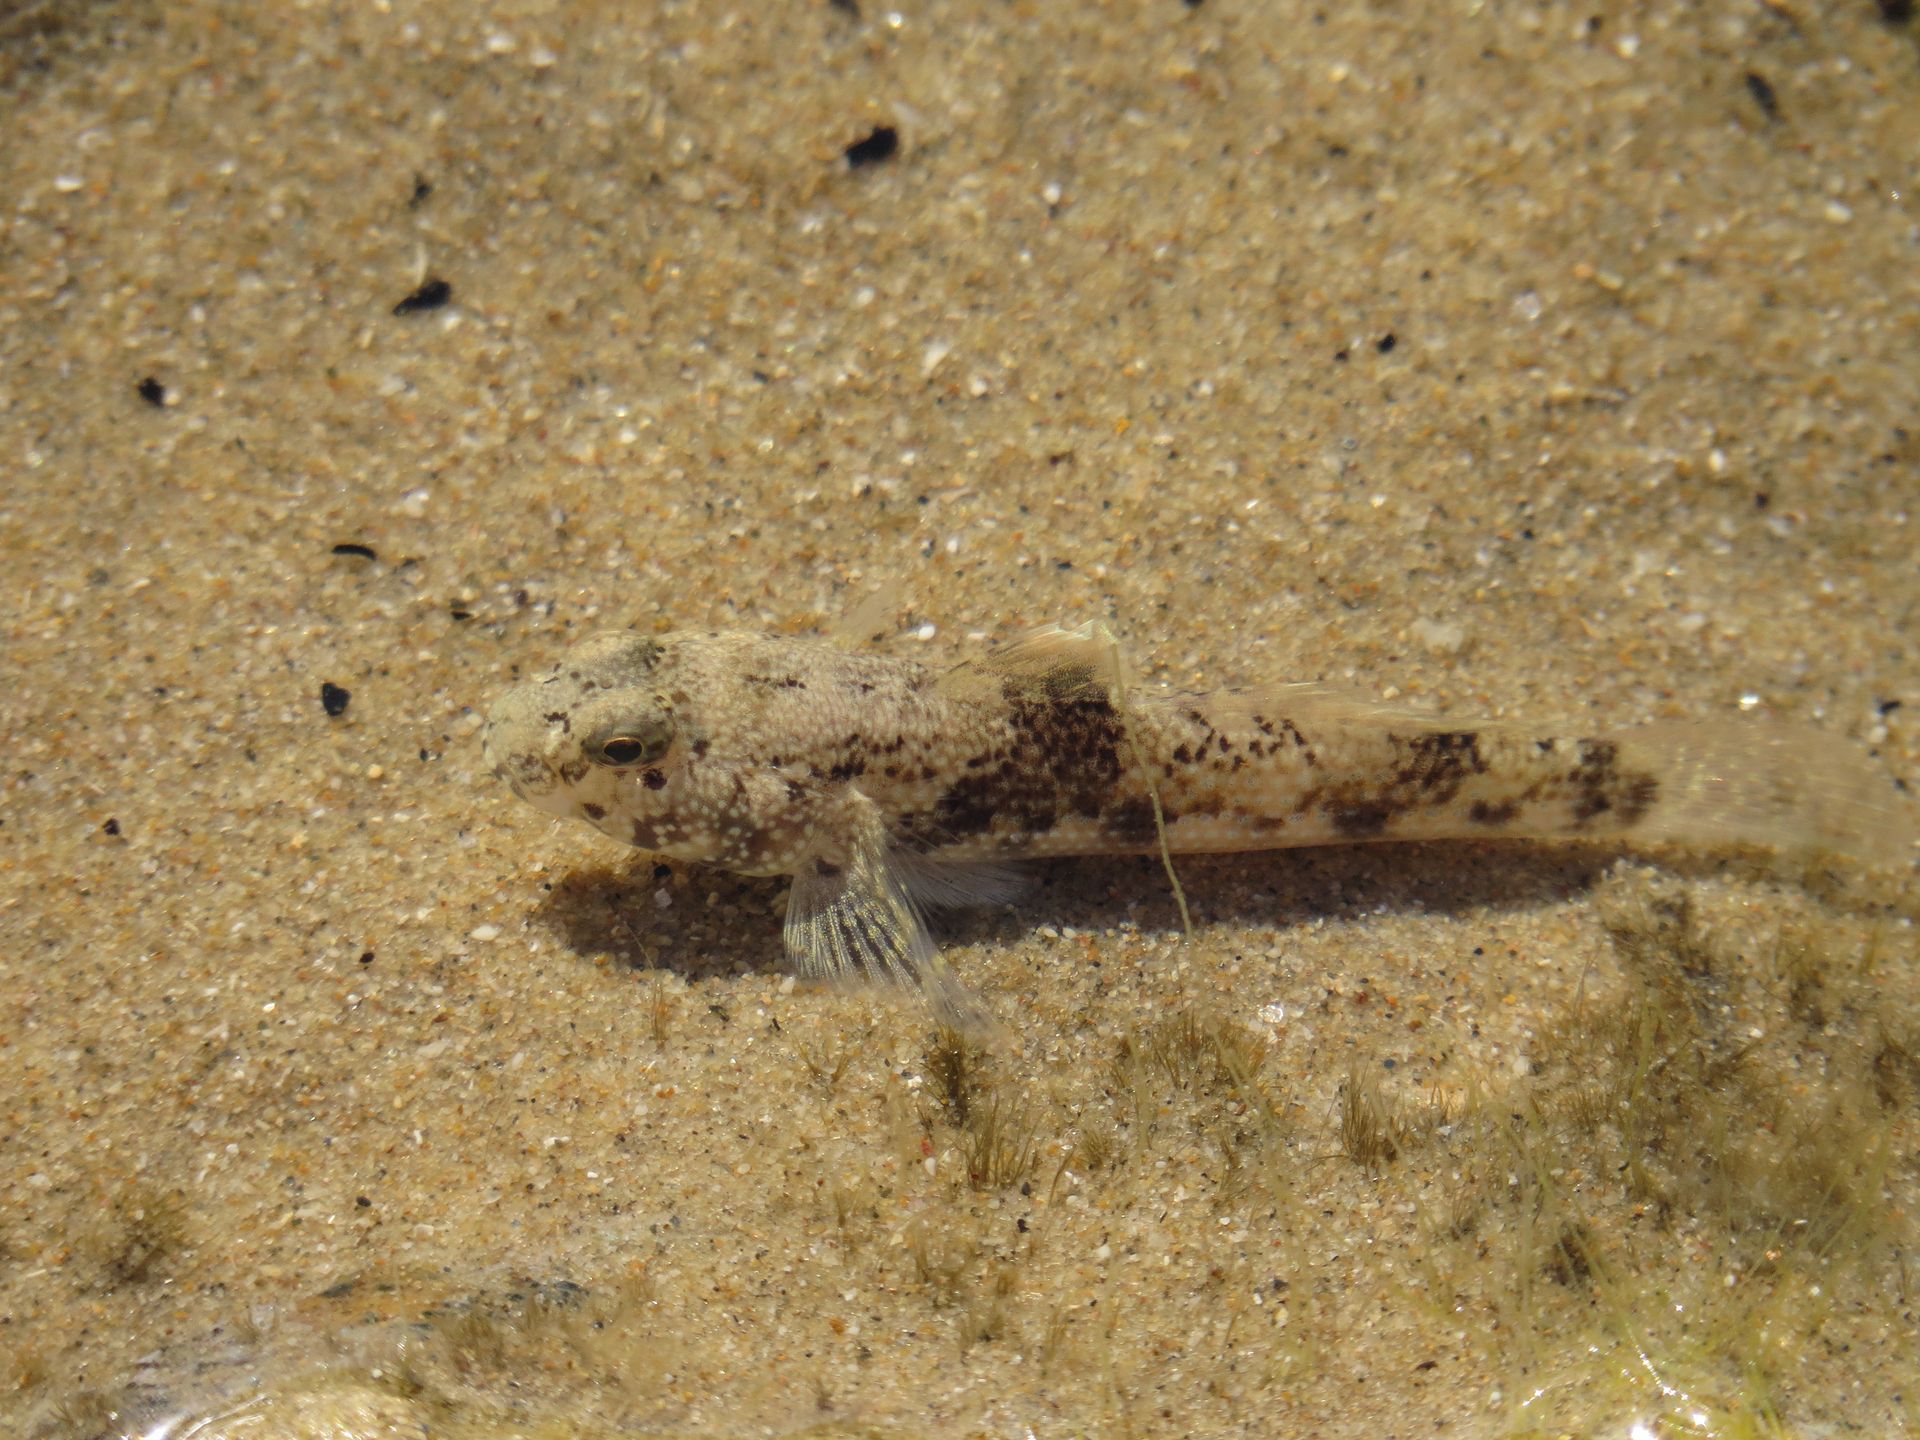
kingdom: Animalia
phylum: Chordata
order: Perciformes
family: Gobiidae
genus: Bathygobius
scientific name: Bathygobius fuscus
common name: Dusky frillgoby
